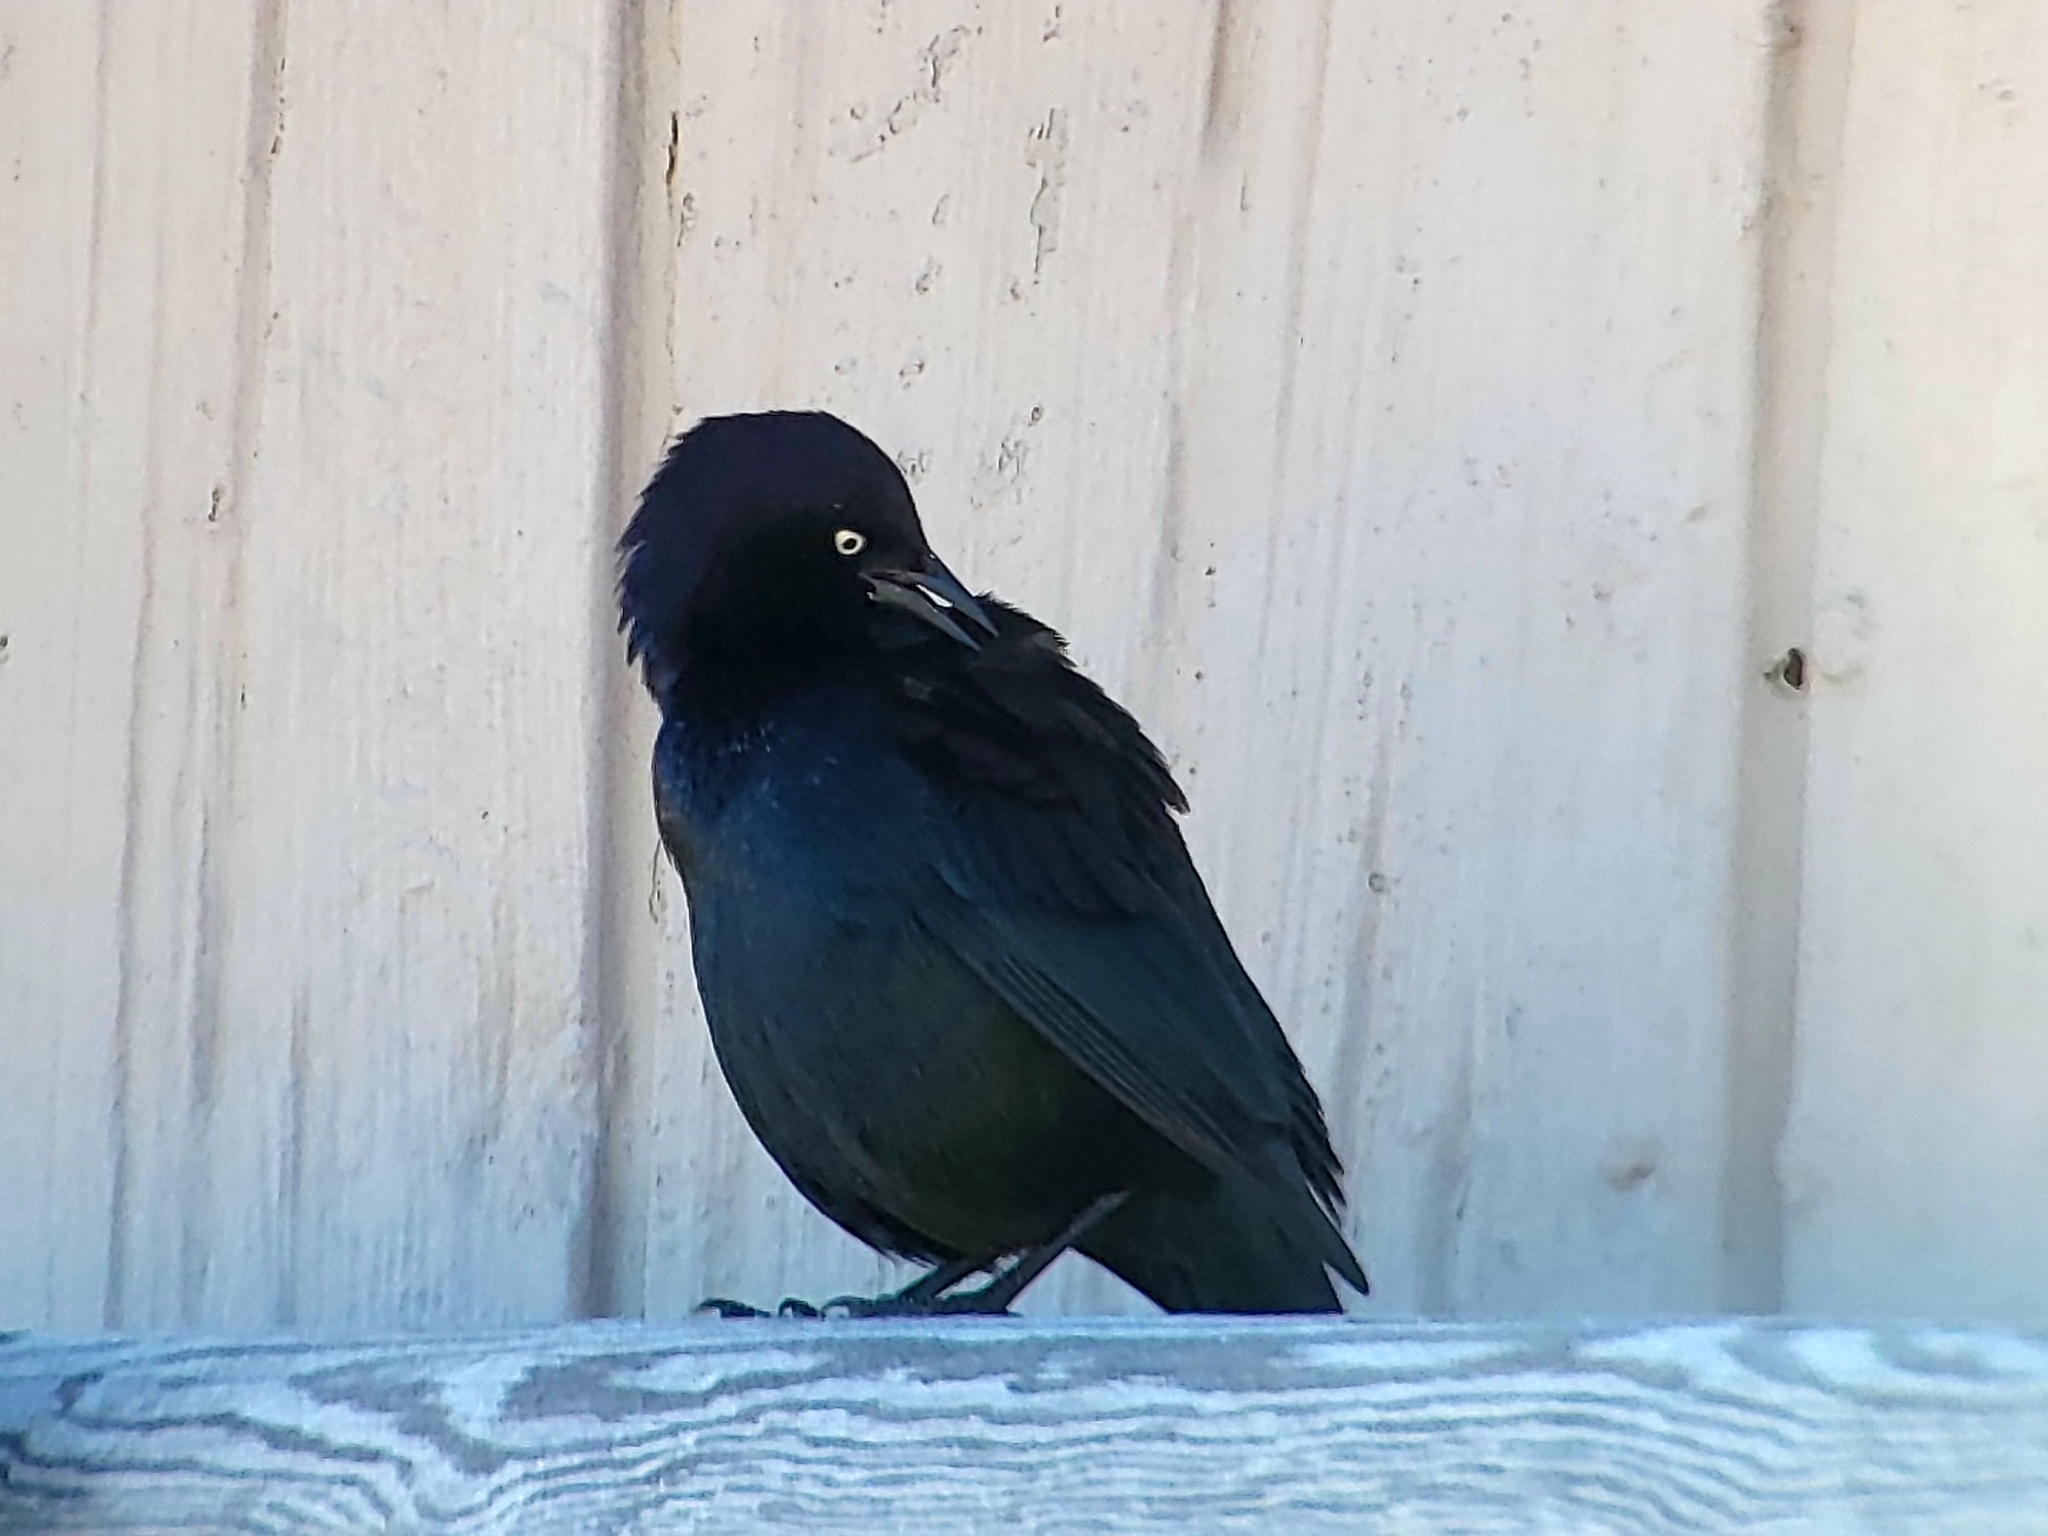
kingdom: Animalia
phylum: Chordata
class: Aves
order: Passeriformes
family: Icteridae
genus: Euphagus
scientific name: Euphagus cyanocephalus
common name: Brewer's blackbird
